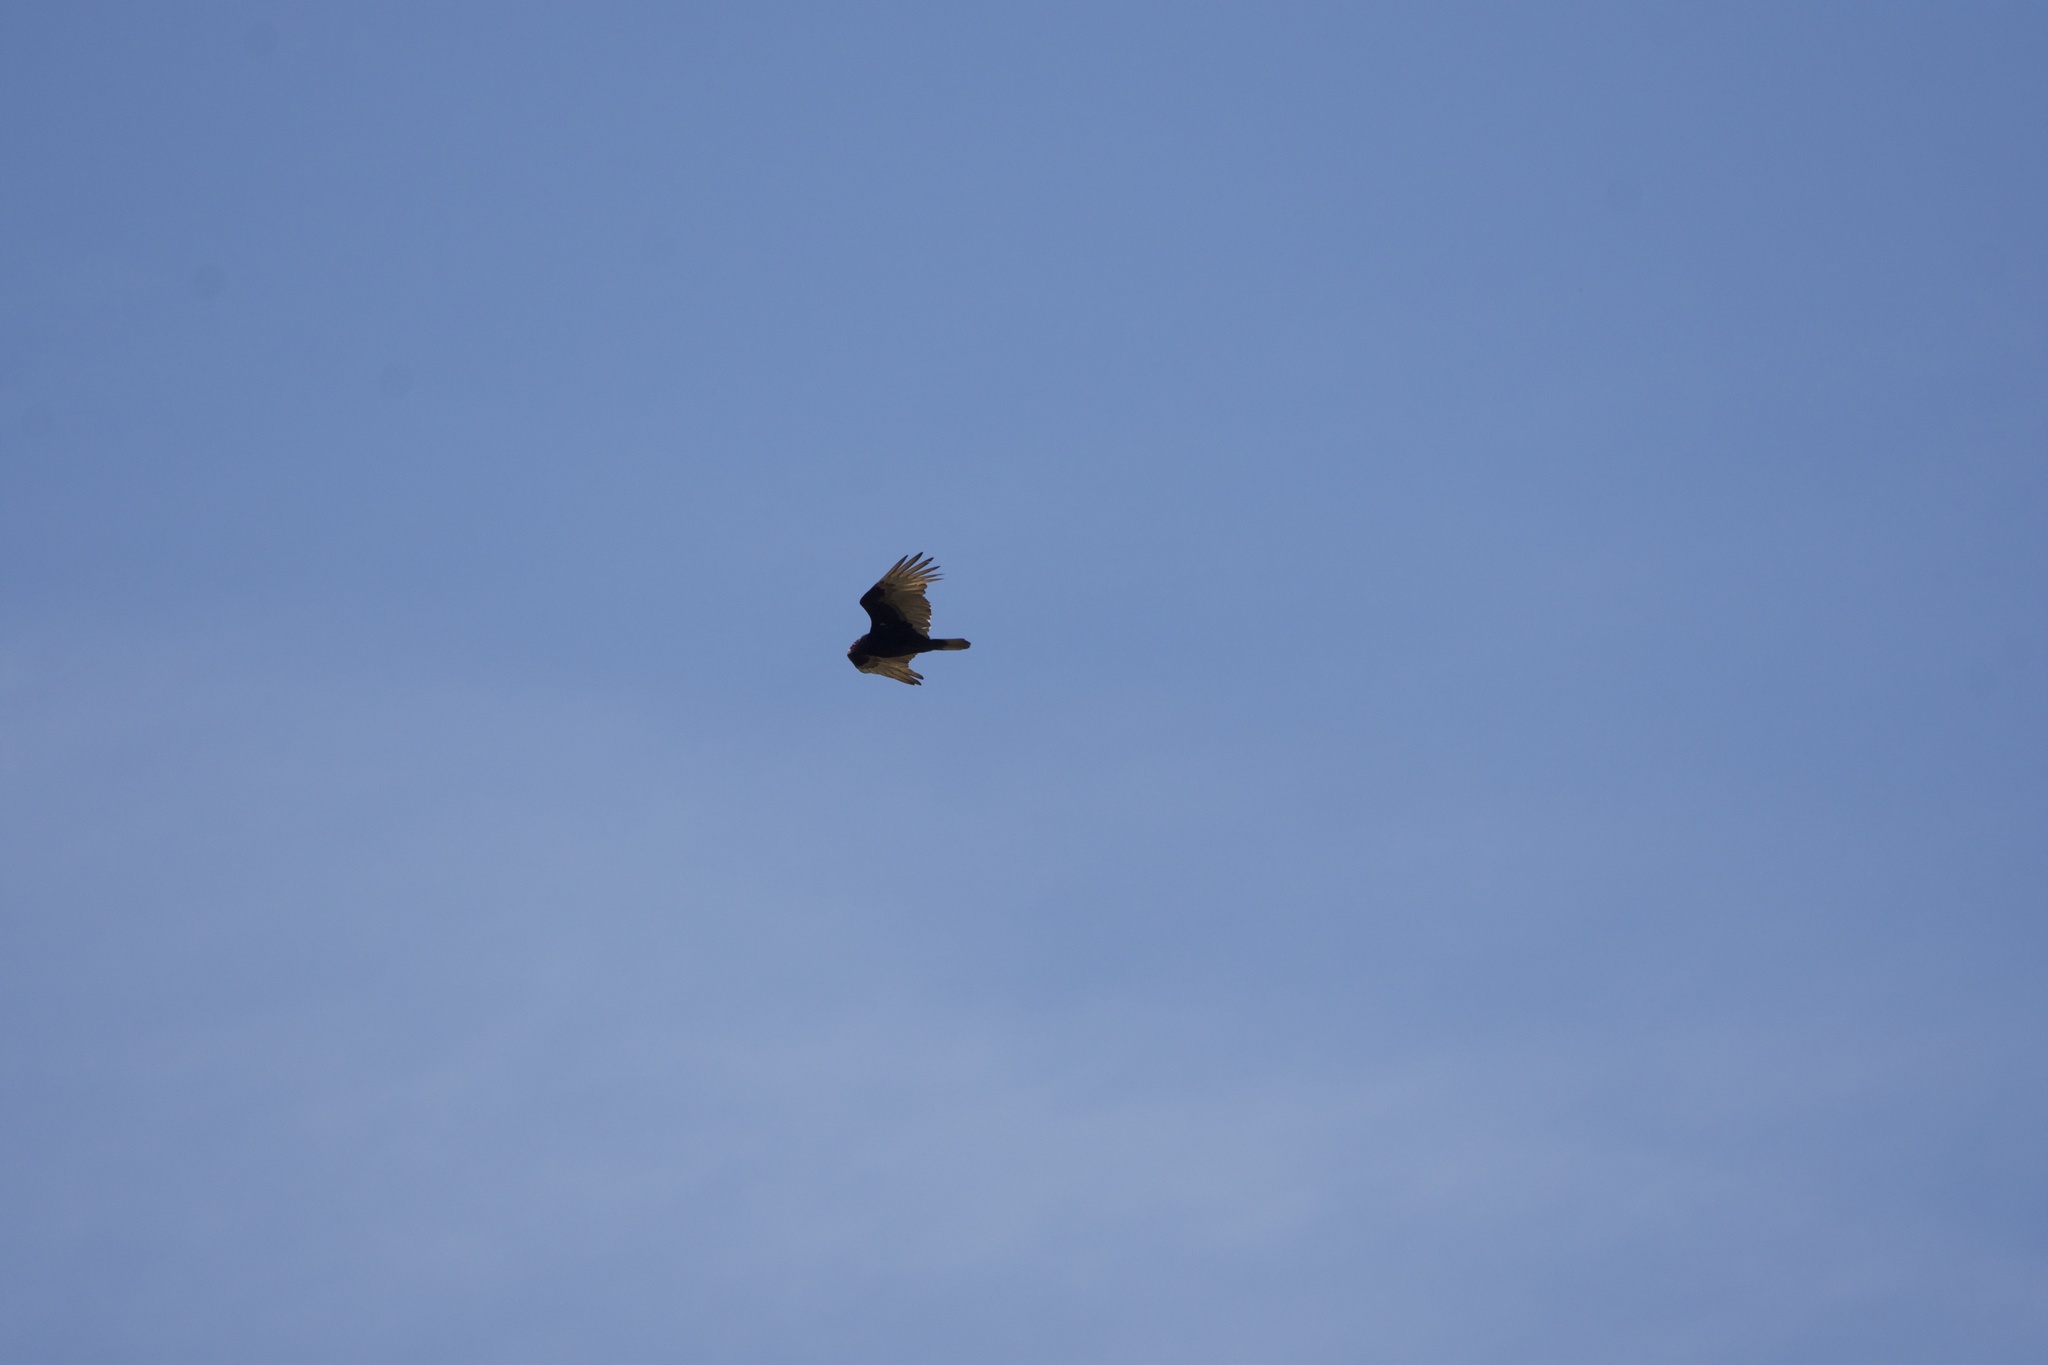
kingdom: Animalia
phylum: Chordata
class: Aves
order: Accipitriformes
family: Cathartidae
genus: Cathartes
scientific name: Cathartes aura
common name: Turkey vulture
